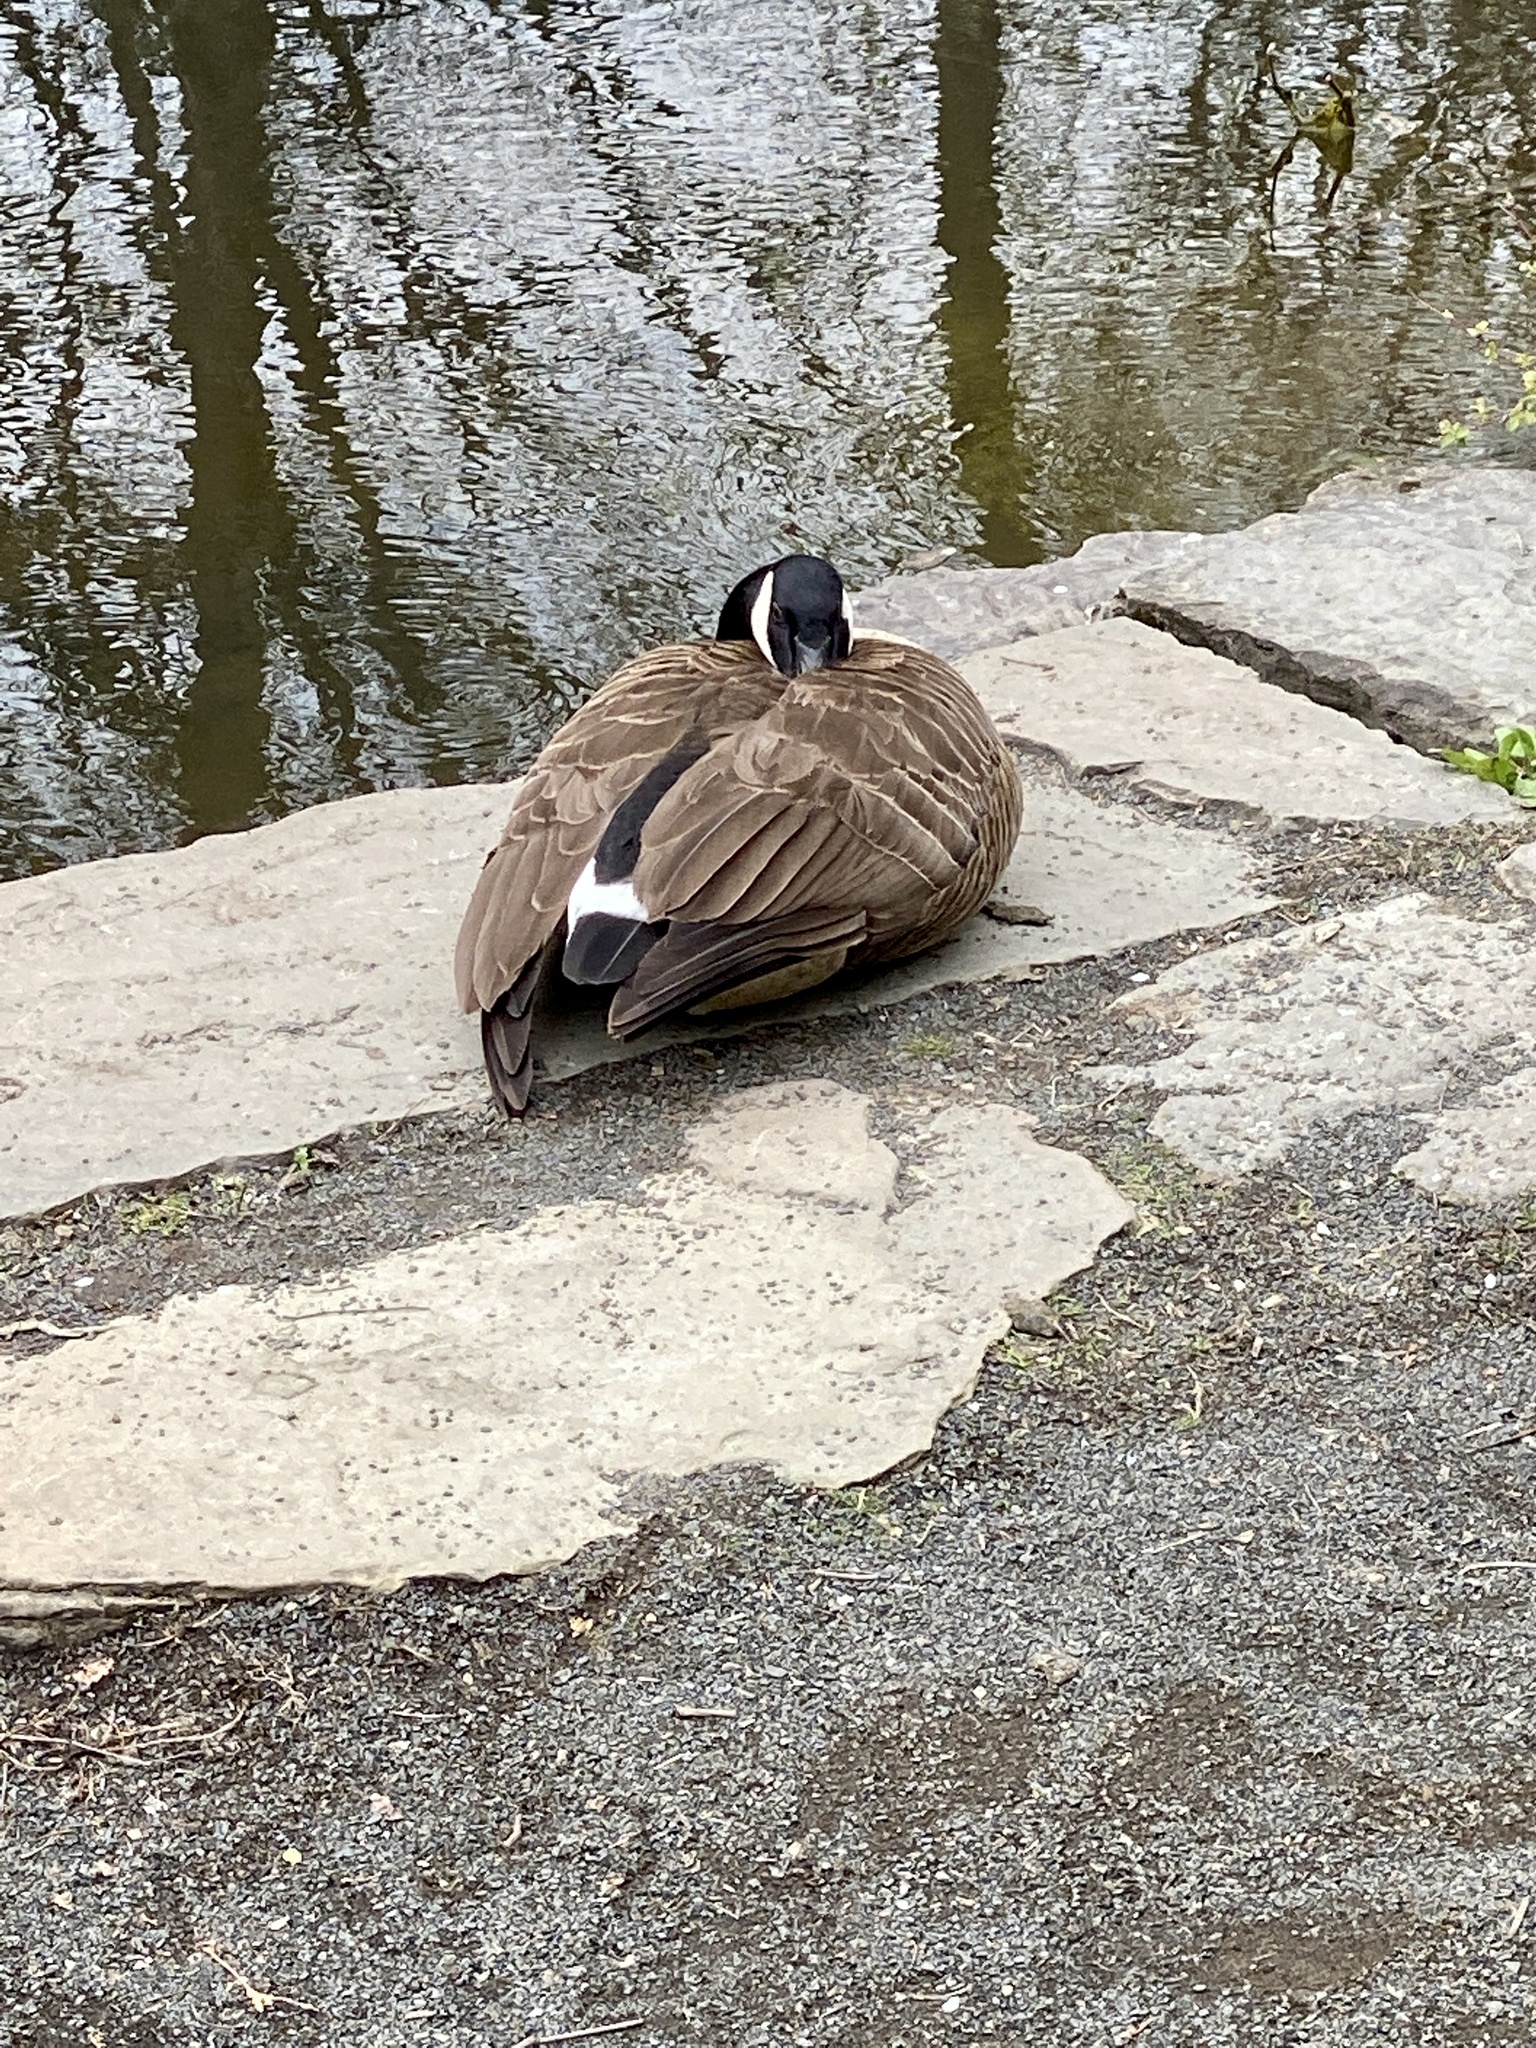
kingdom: Animalia
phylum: Chordata
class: Aves
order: Anseriformes
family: Anatidae
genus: Branta
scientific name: Branta canadensis
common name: Canada goose
